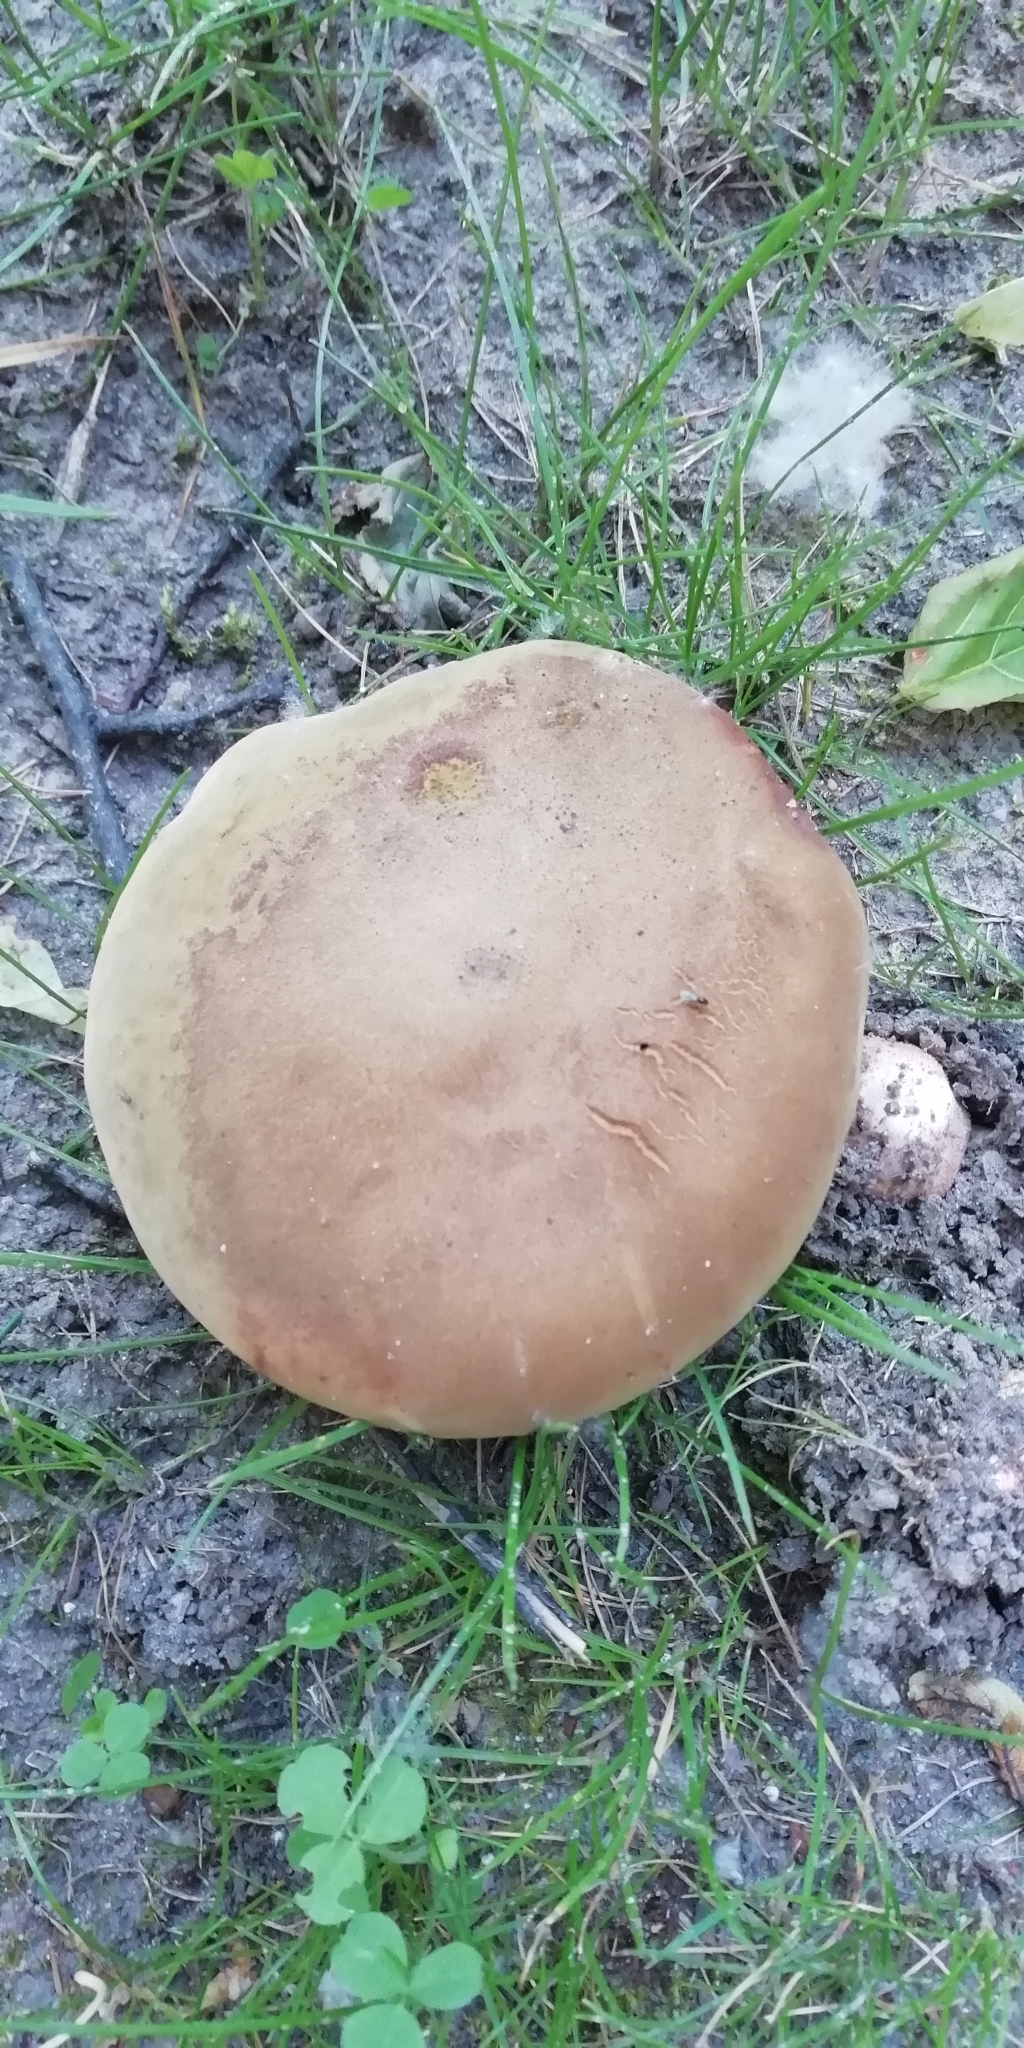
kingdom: Fungi
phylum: Basidiomycota
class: Agaricomycetes
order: Boletales
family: Boletaceae
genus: Suillellus
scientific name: Suillellus luridus
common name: Lurid bolete
